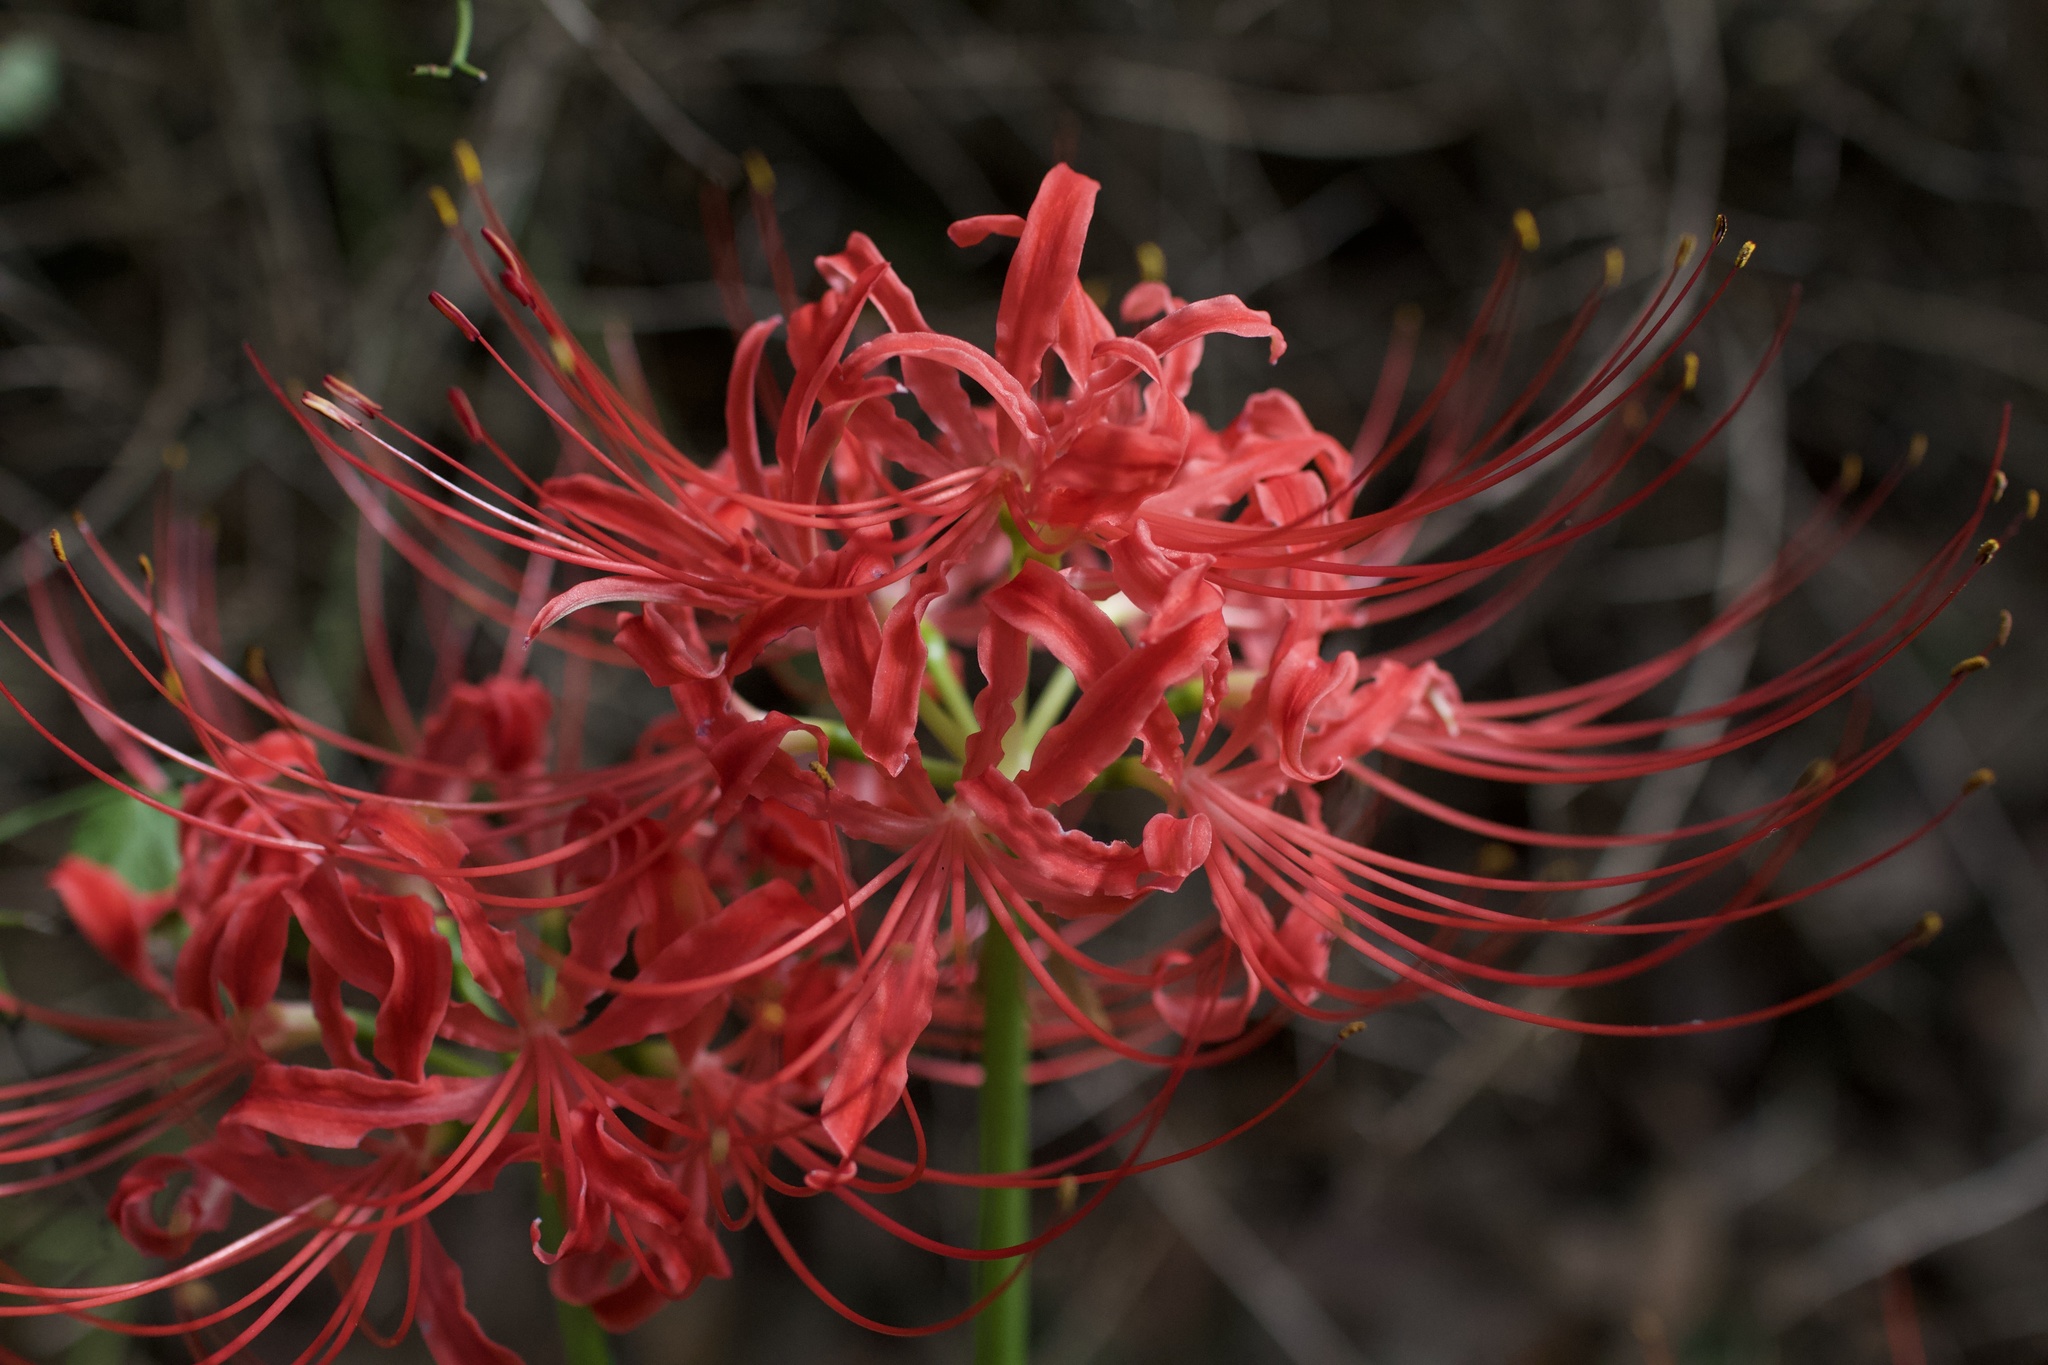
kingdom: Plantae
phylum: Tracheophyta
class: Liliopsida
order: Asparagales
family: Amaryllidaceae
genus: Lycoris
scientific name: Lycoris radiata
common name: Red spider lily
